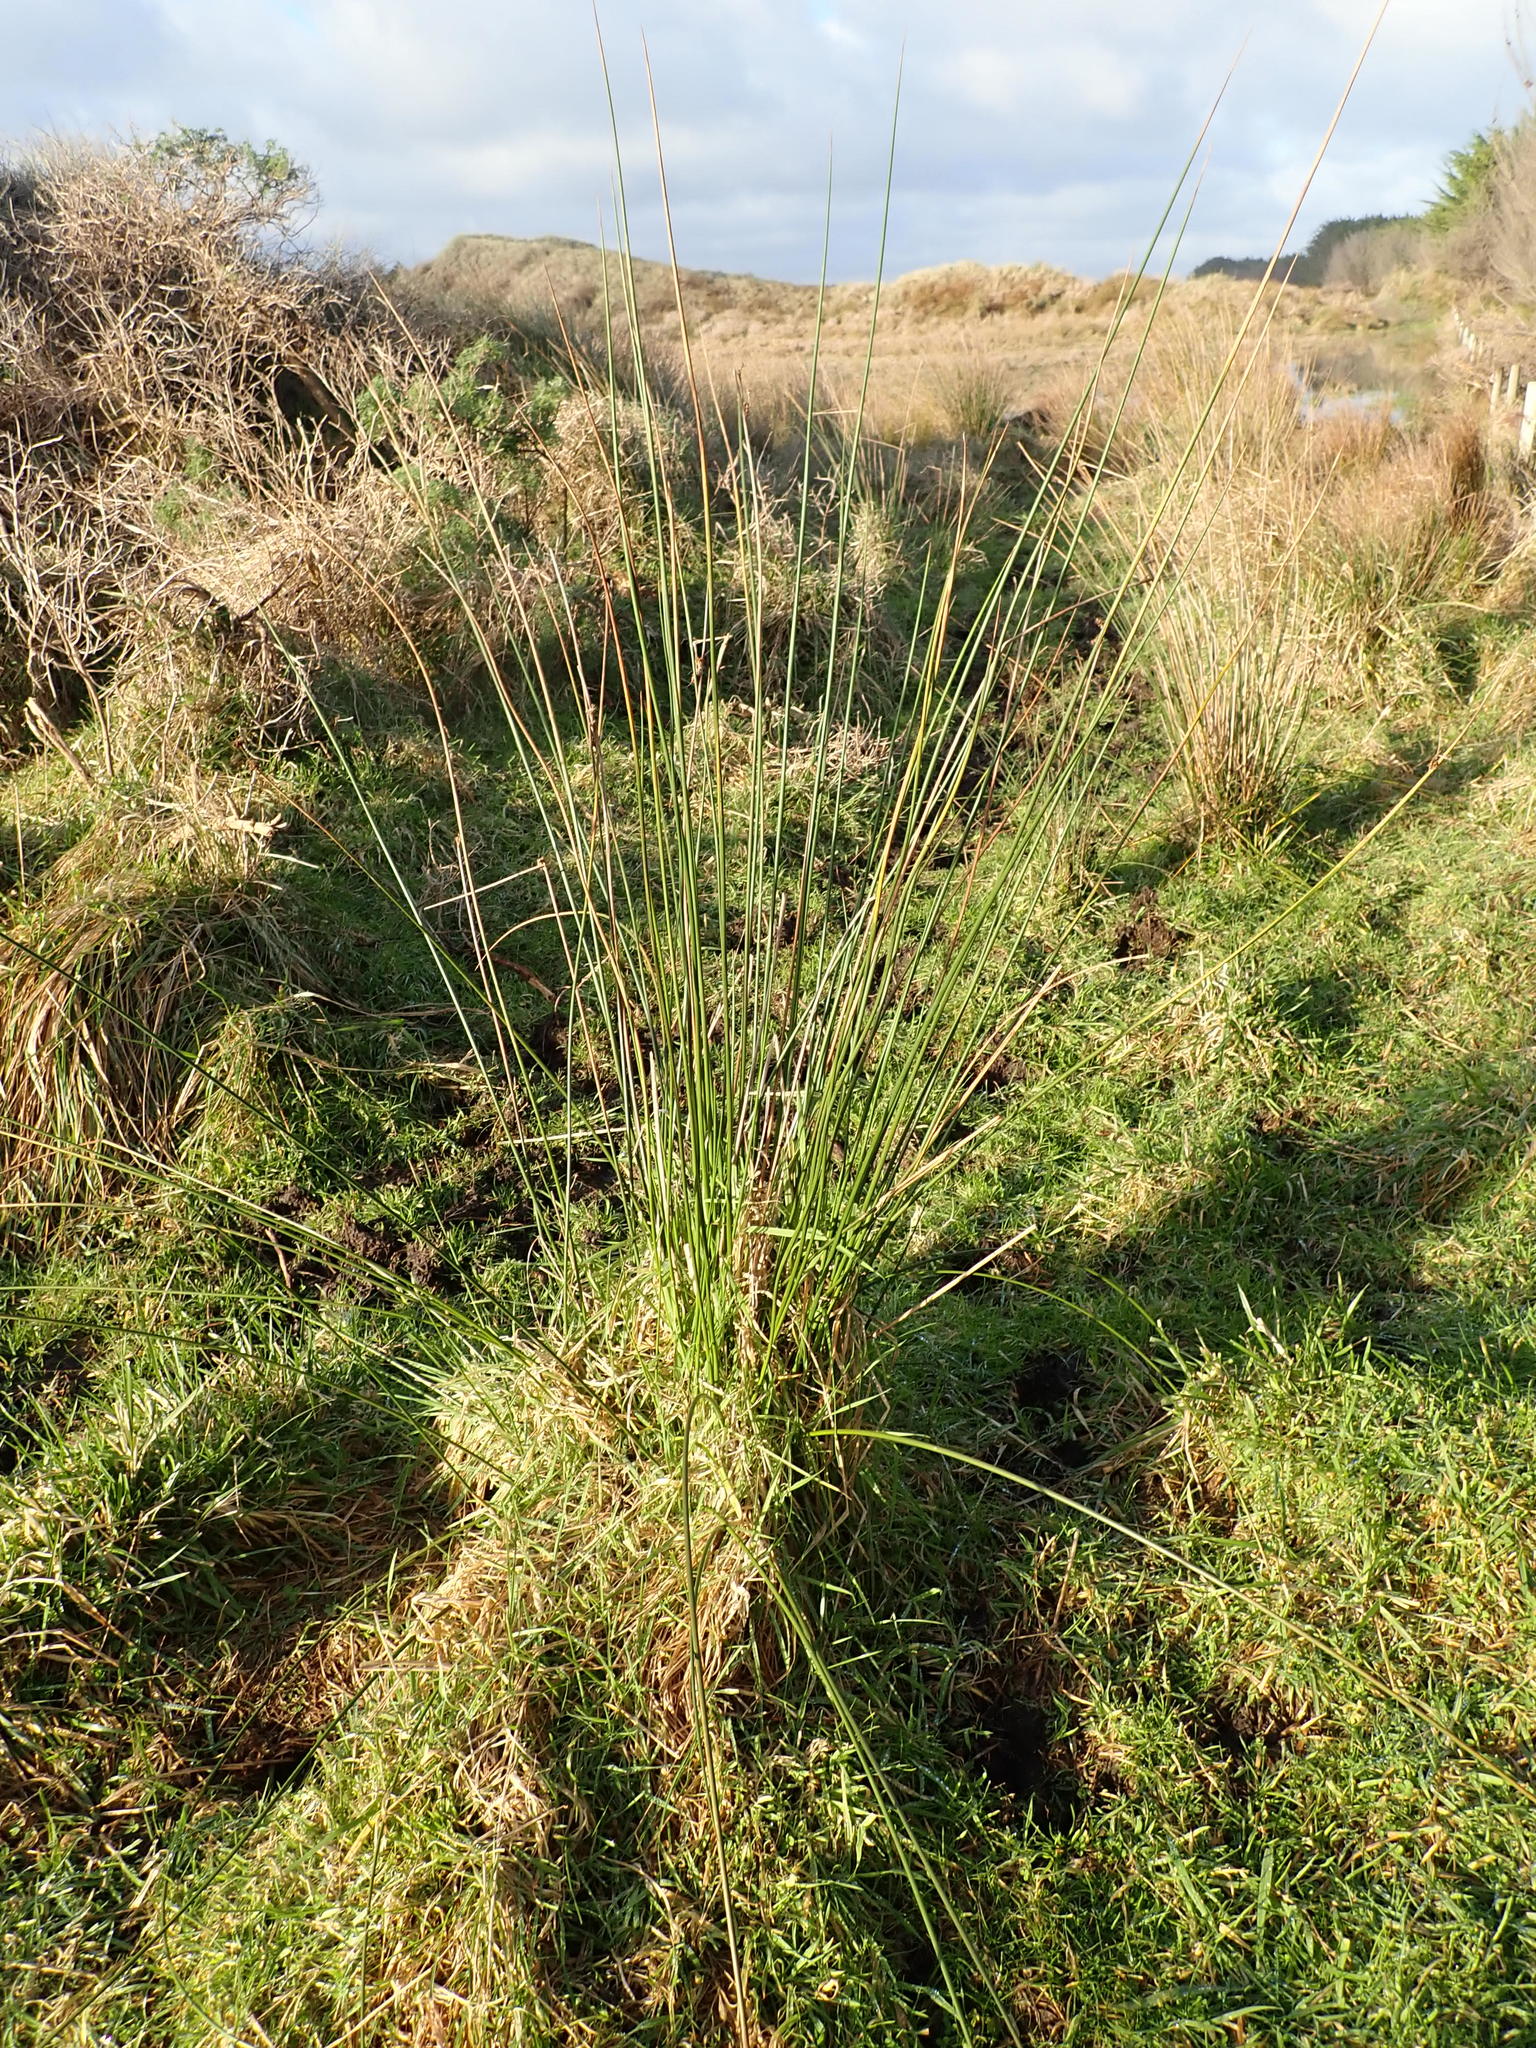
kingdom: Plantae
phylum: Tracheophyta
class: Liliopsida
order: Poales
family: Juncaceae
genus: Juncus
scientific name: Juncus edgariae
